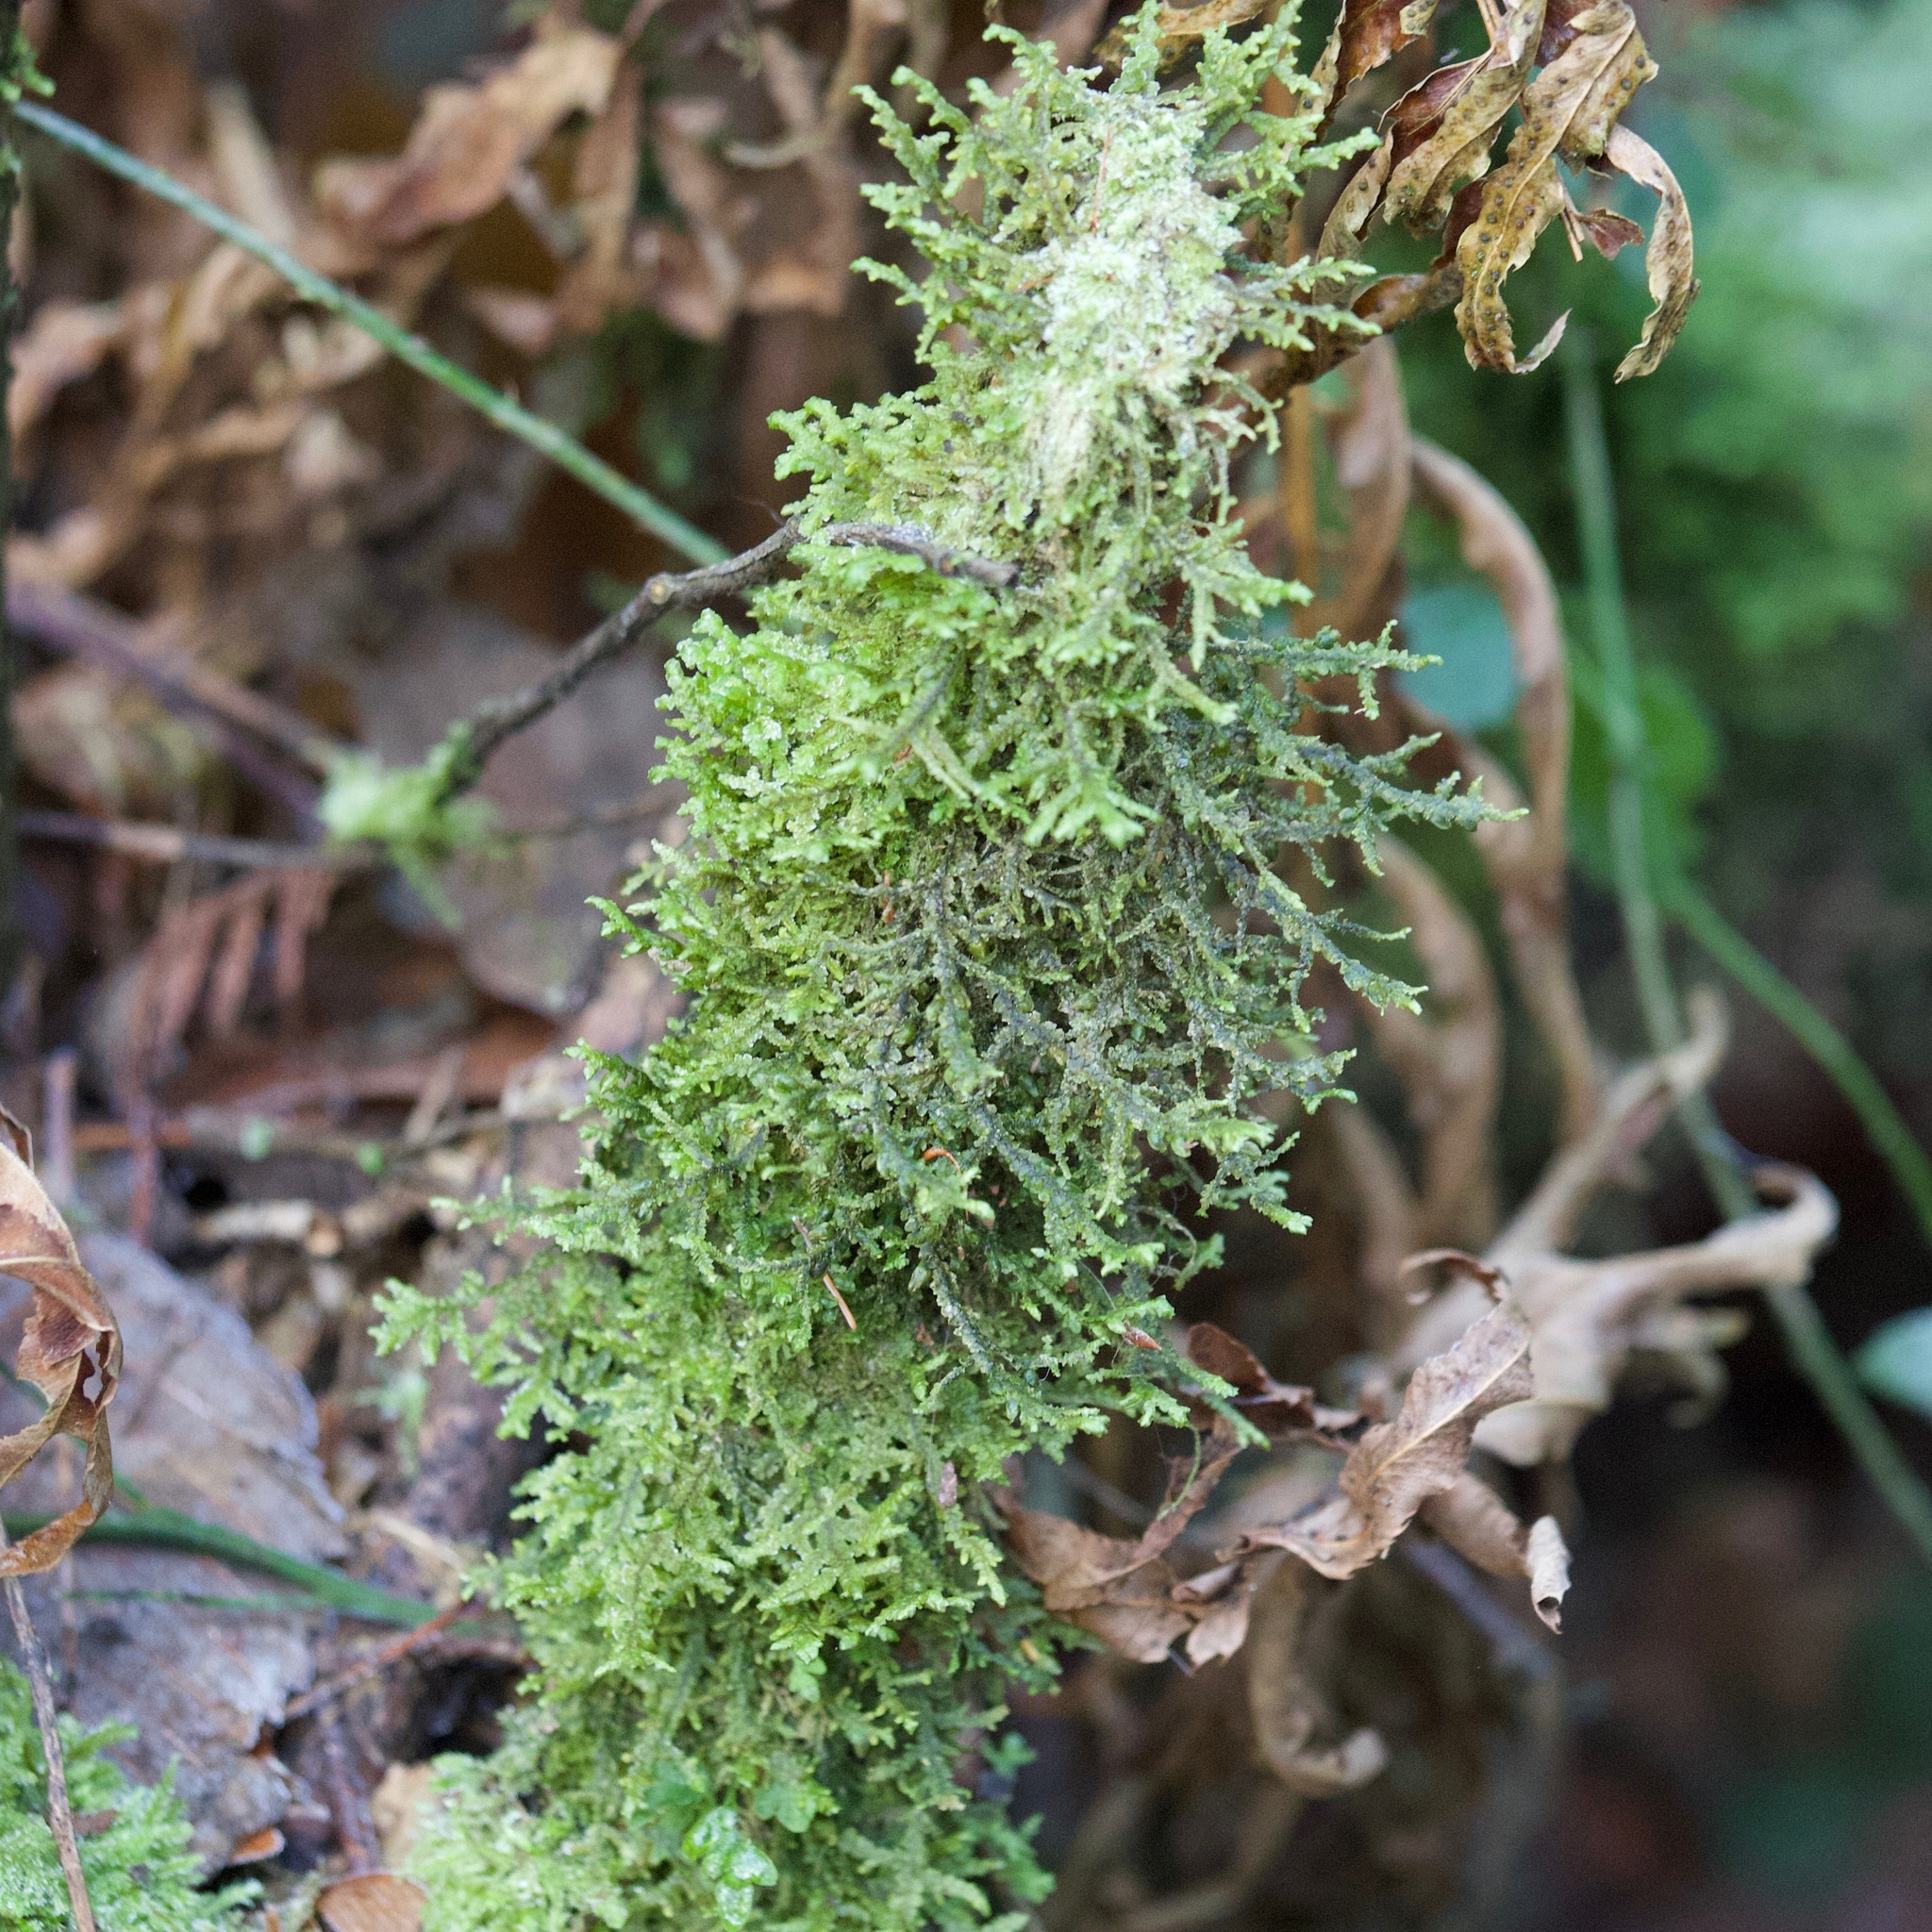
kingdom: Plantae
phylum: Bryophyta
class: Bryopsida
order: Hypnales
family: Neckeraceae
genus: Neckera
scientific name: Neckera douglasii
